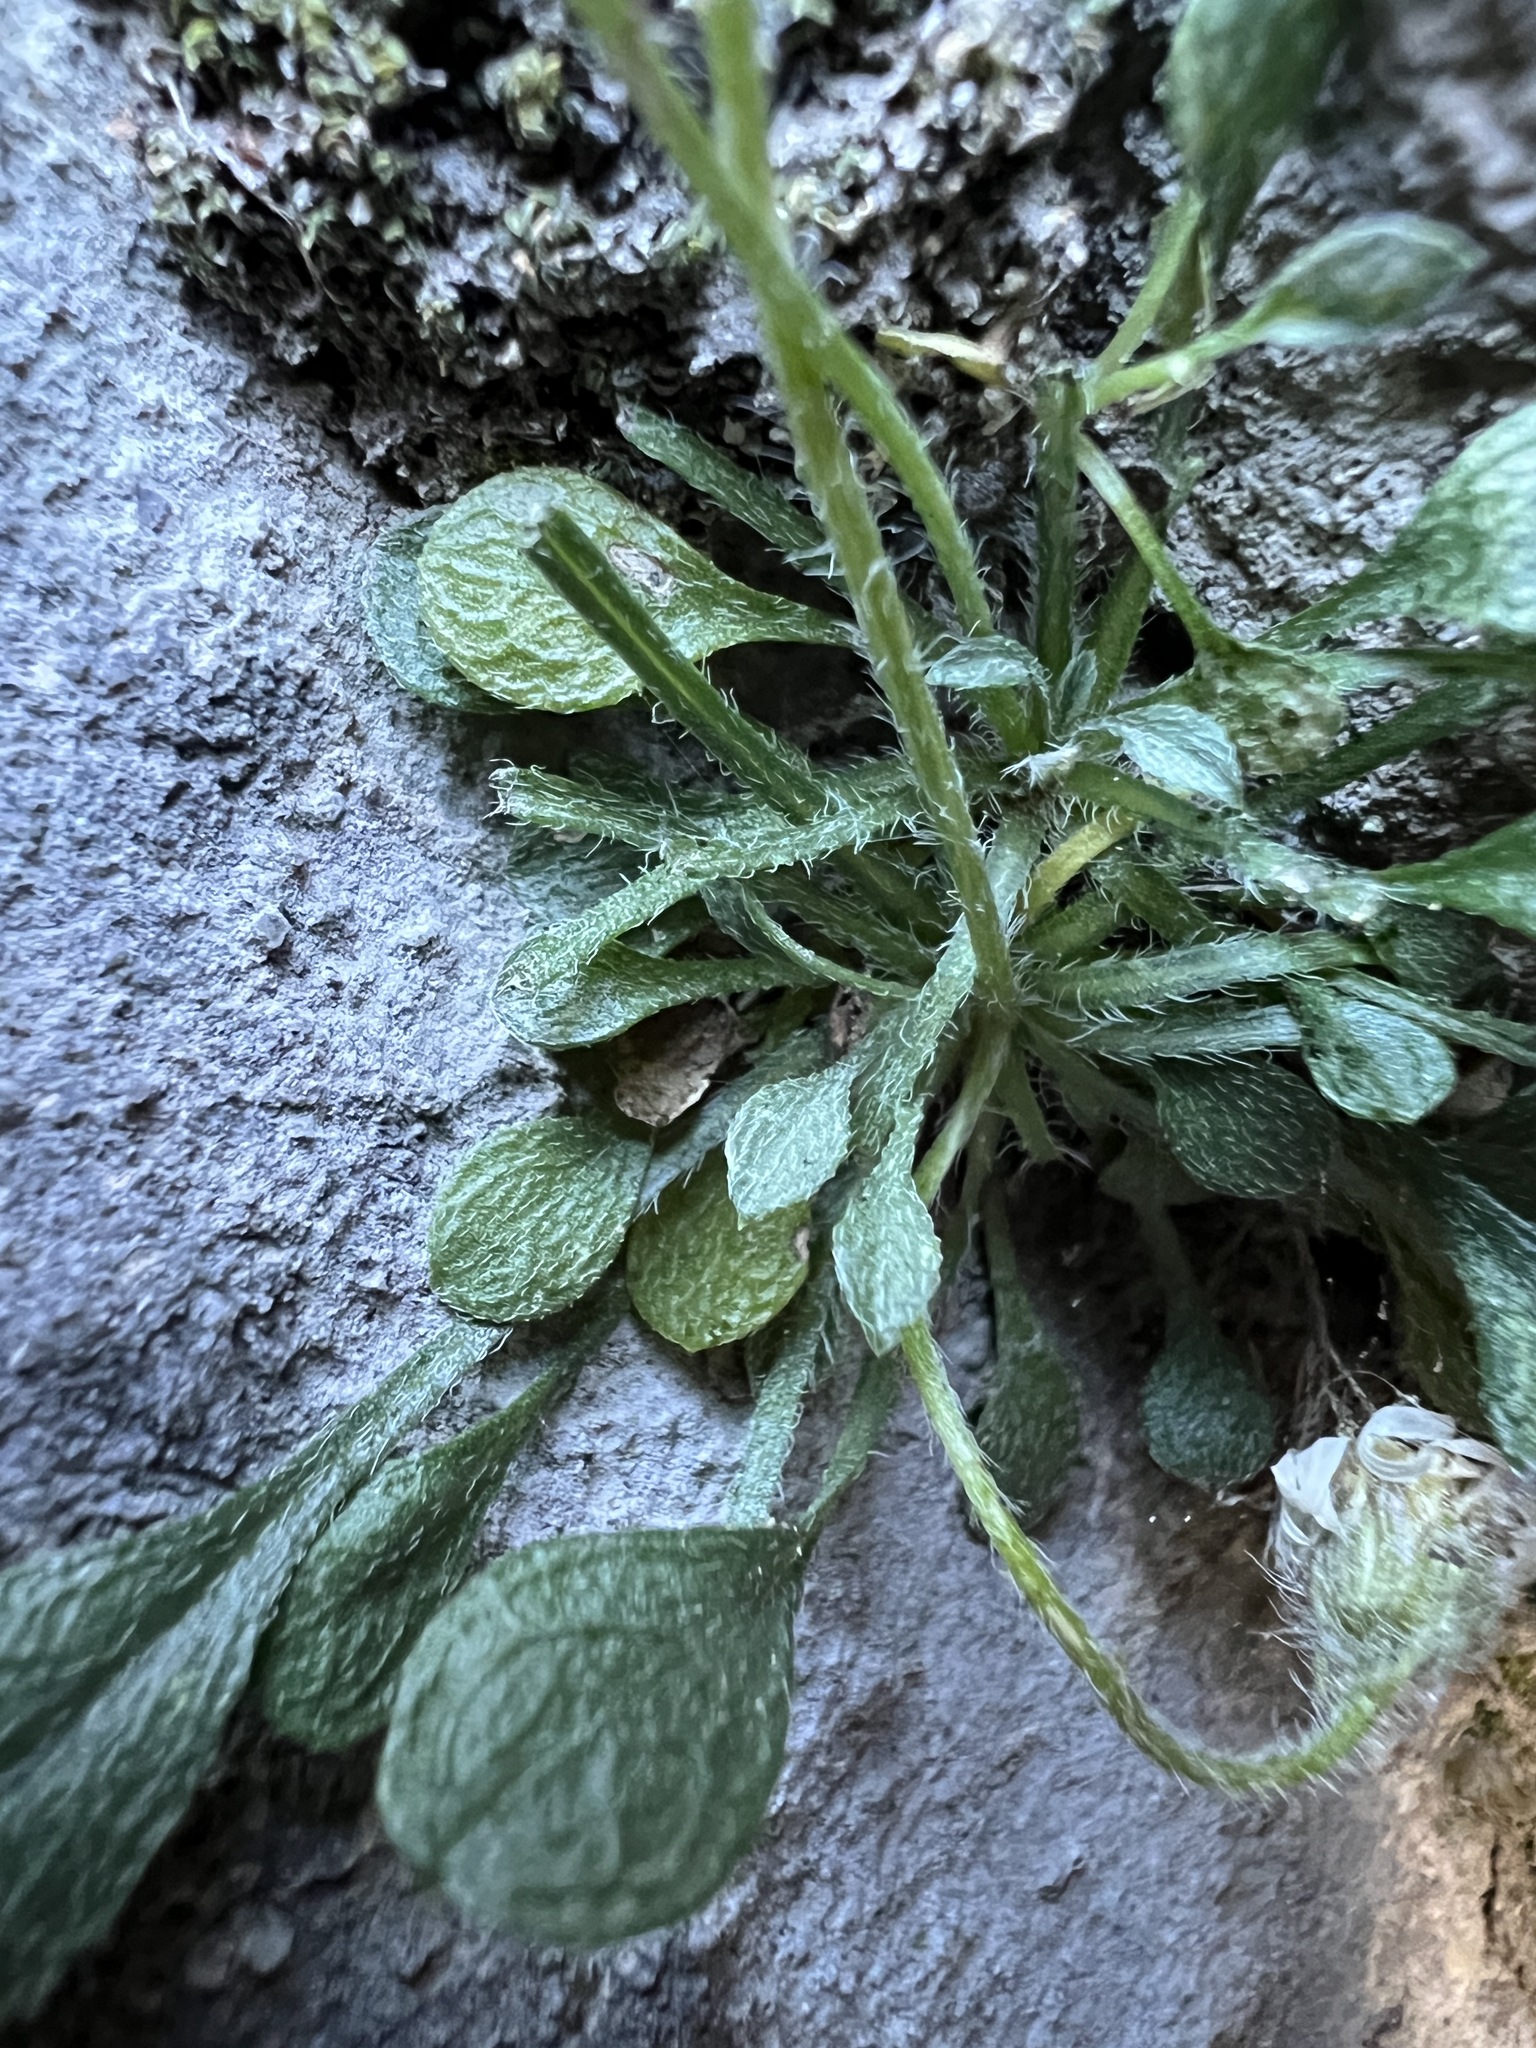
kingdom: Plantae
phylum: Tracheophyta
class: Magnoliopsida
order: Asterales
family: Asteraceae
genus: Erigeron
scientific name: Erigeron uncialis
